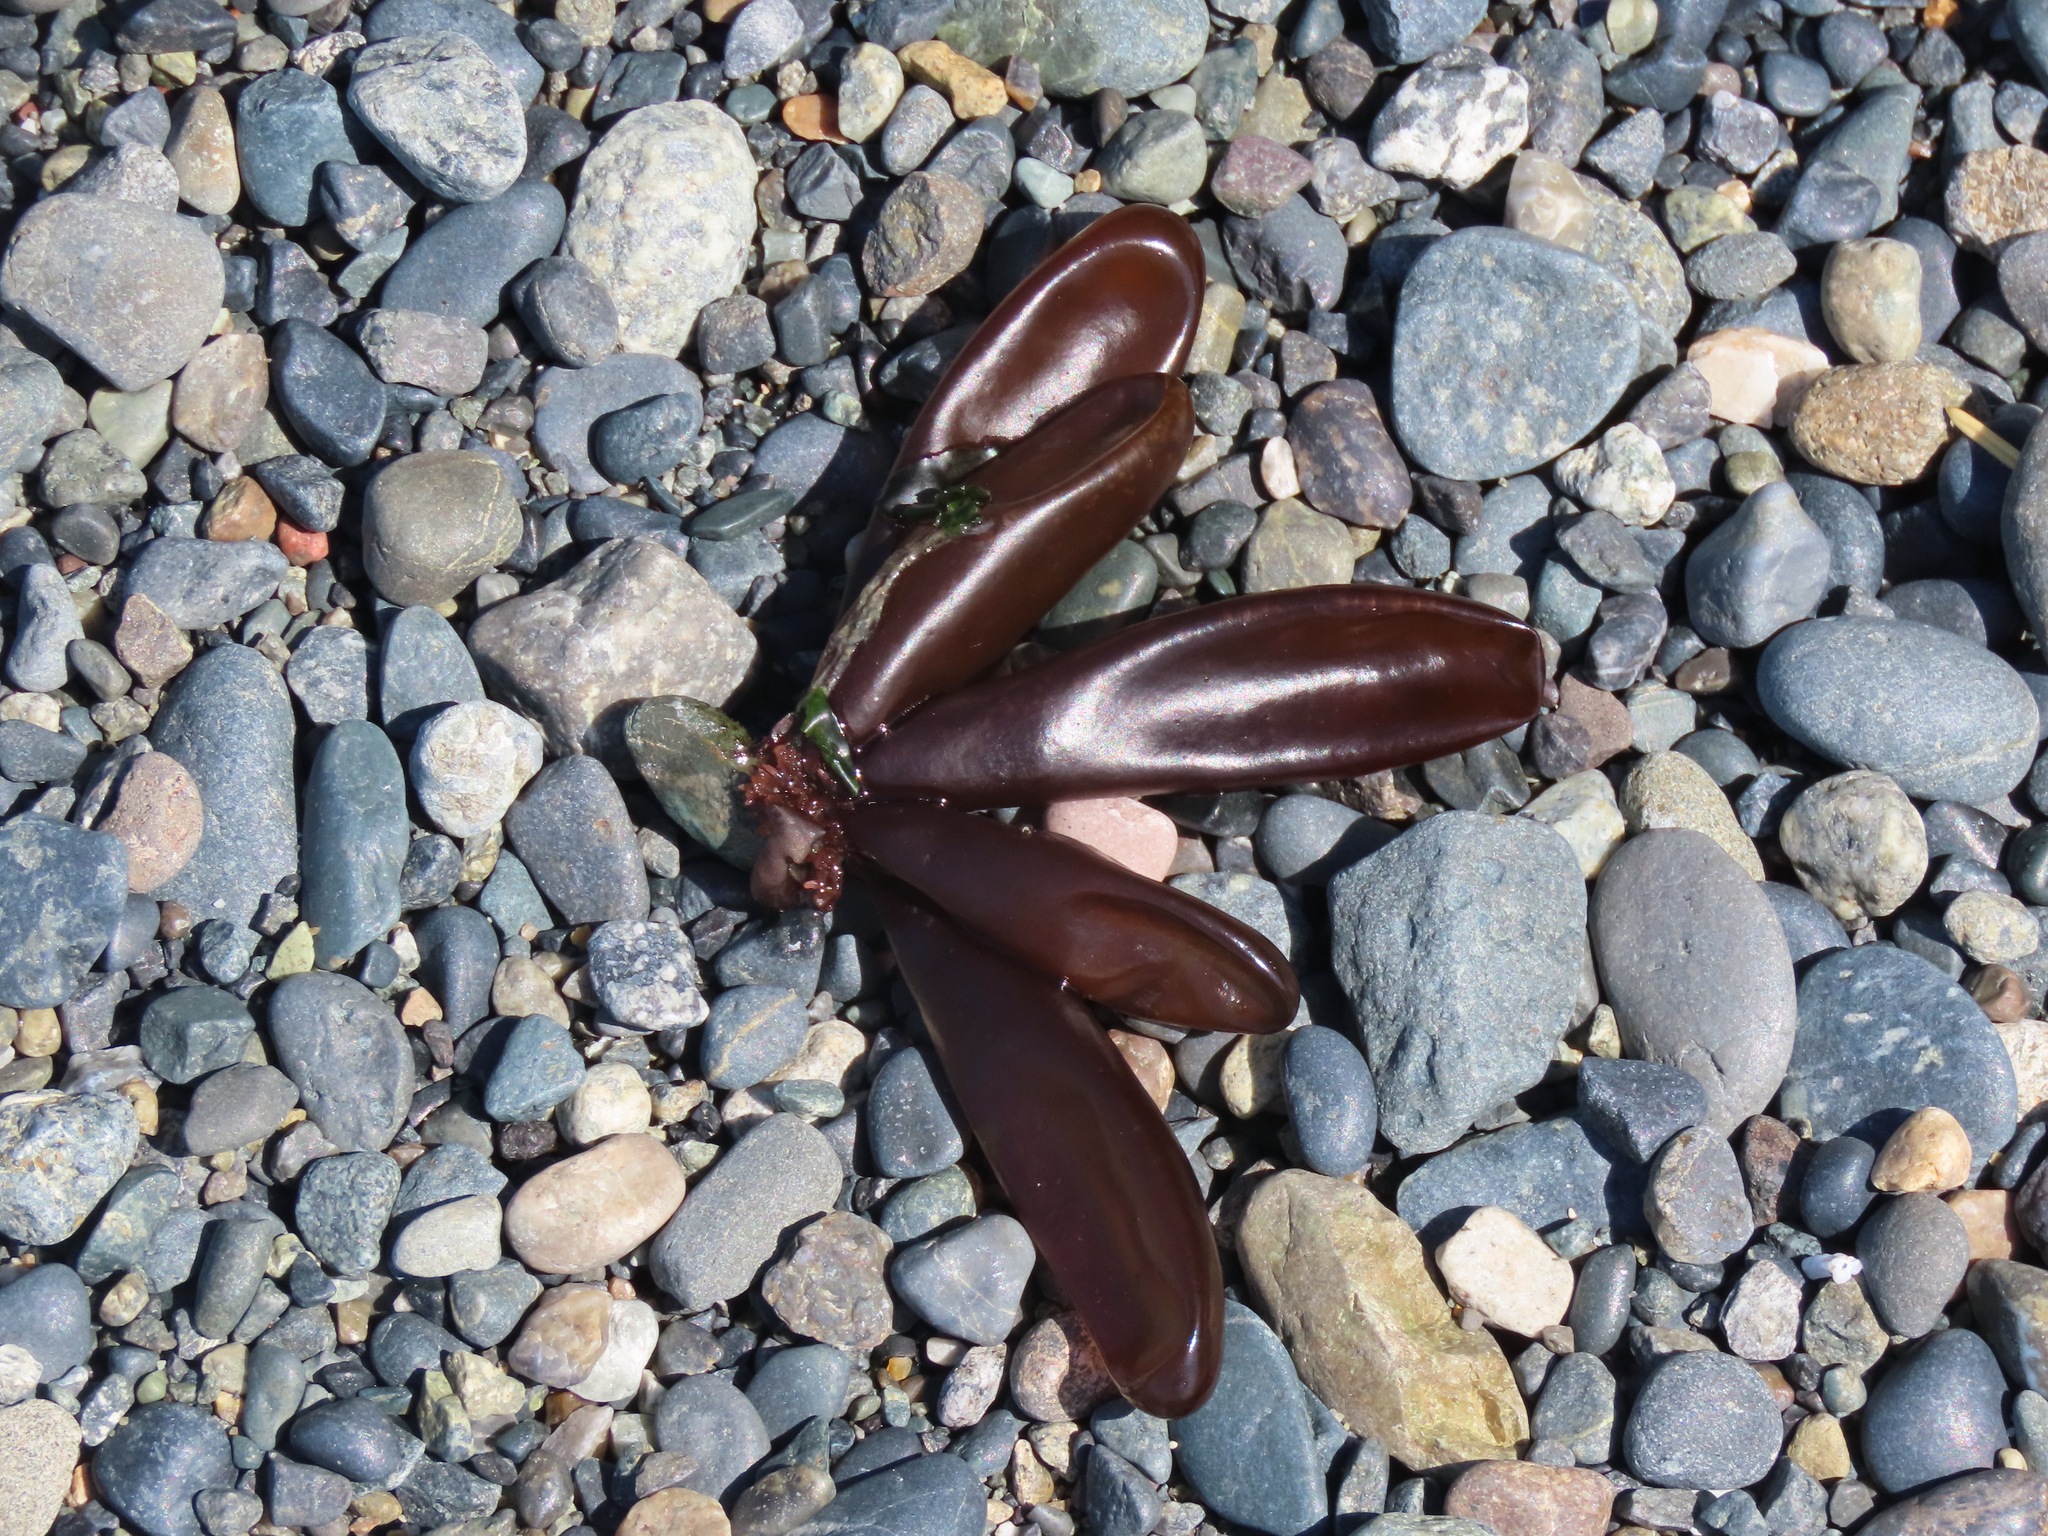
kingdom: Plantae
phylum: Rhodophyta
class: Florideophyceae
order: Palmariales
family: Palmariaceae
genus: Halosaccion
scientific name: Halosaccion glandiforme
